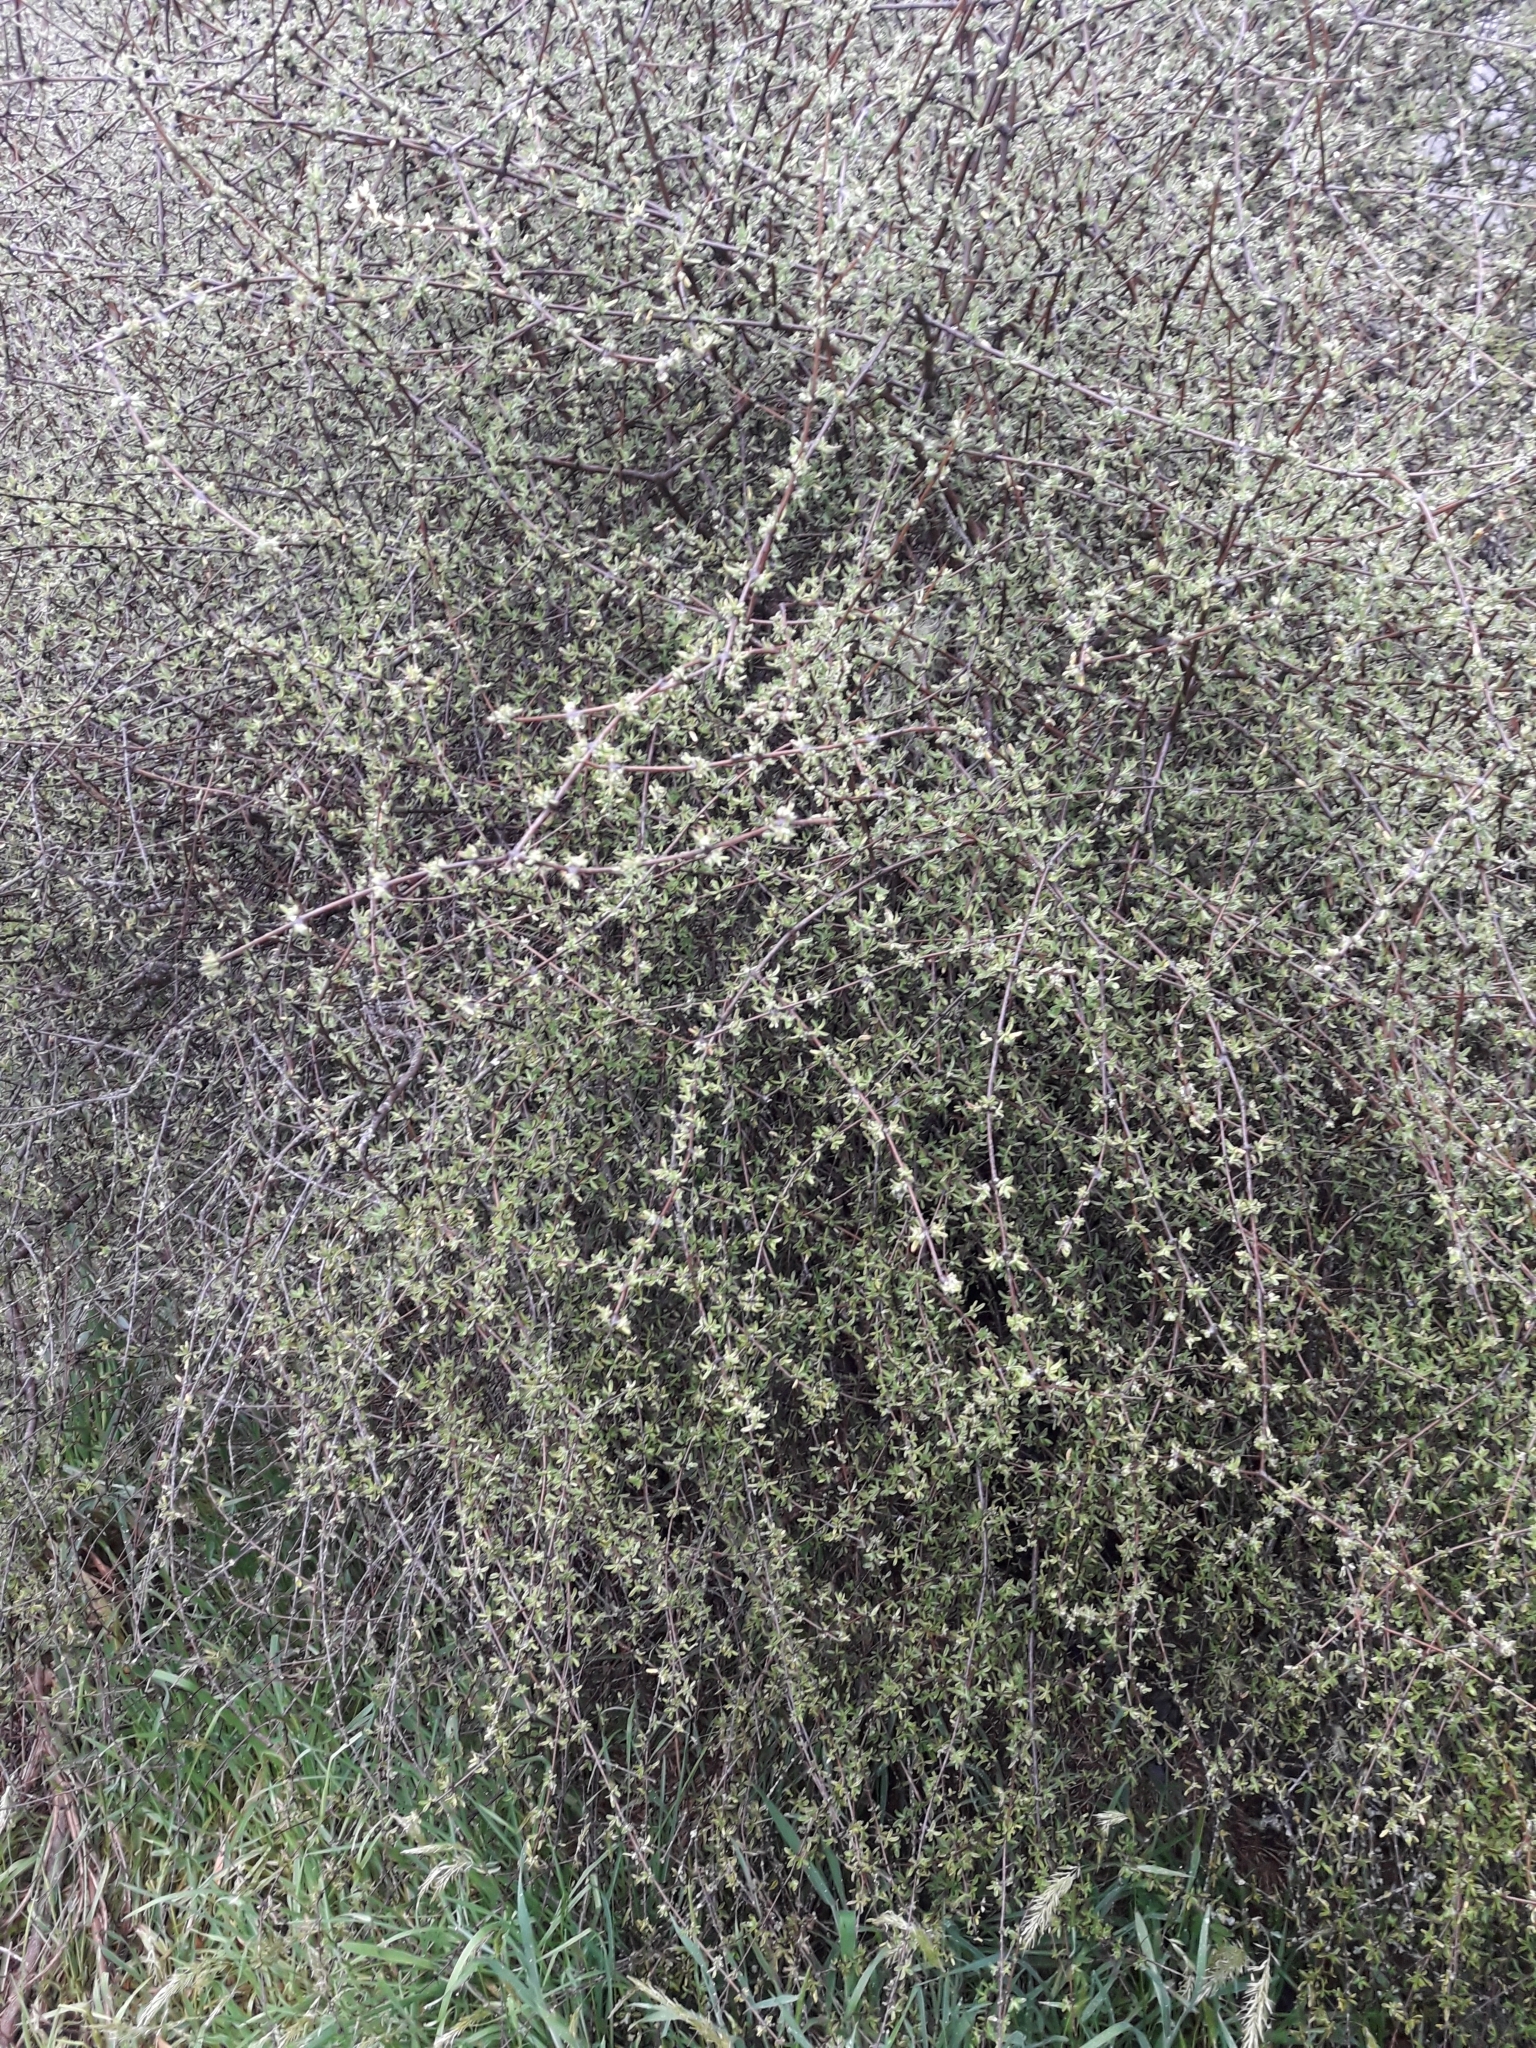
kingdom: Plantae
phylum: Tracheophyta
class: Magnoliopsida
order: Asterales
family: Asteraceae
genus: Olearia
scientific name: Olearia bullata
